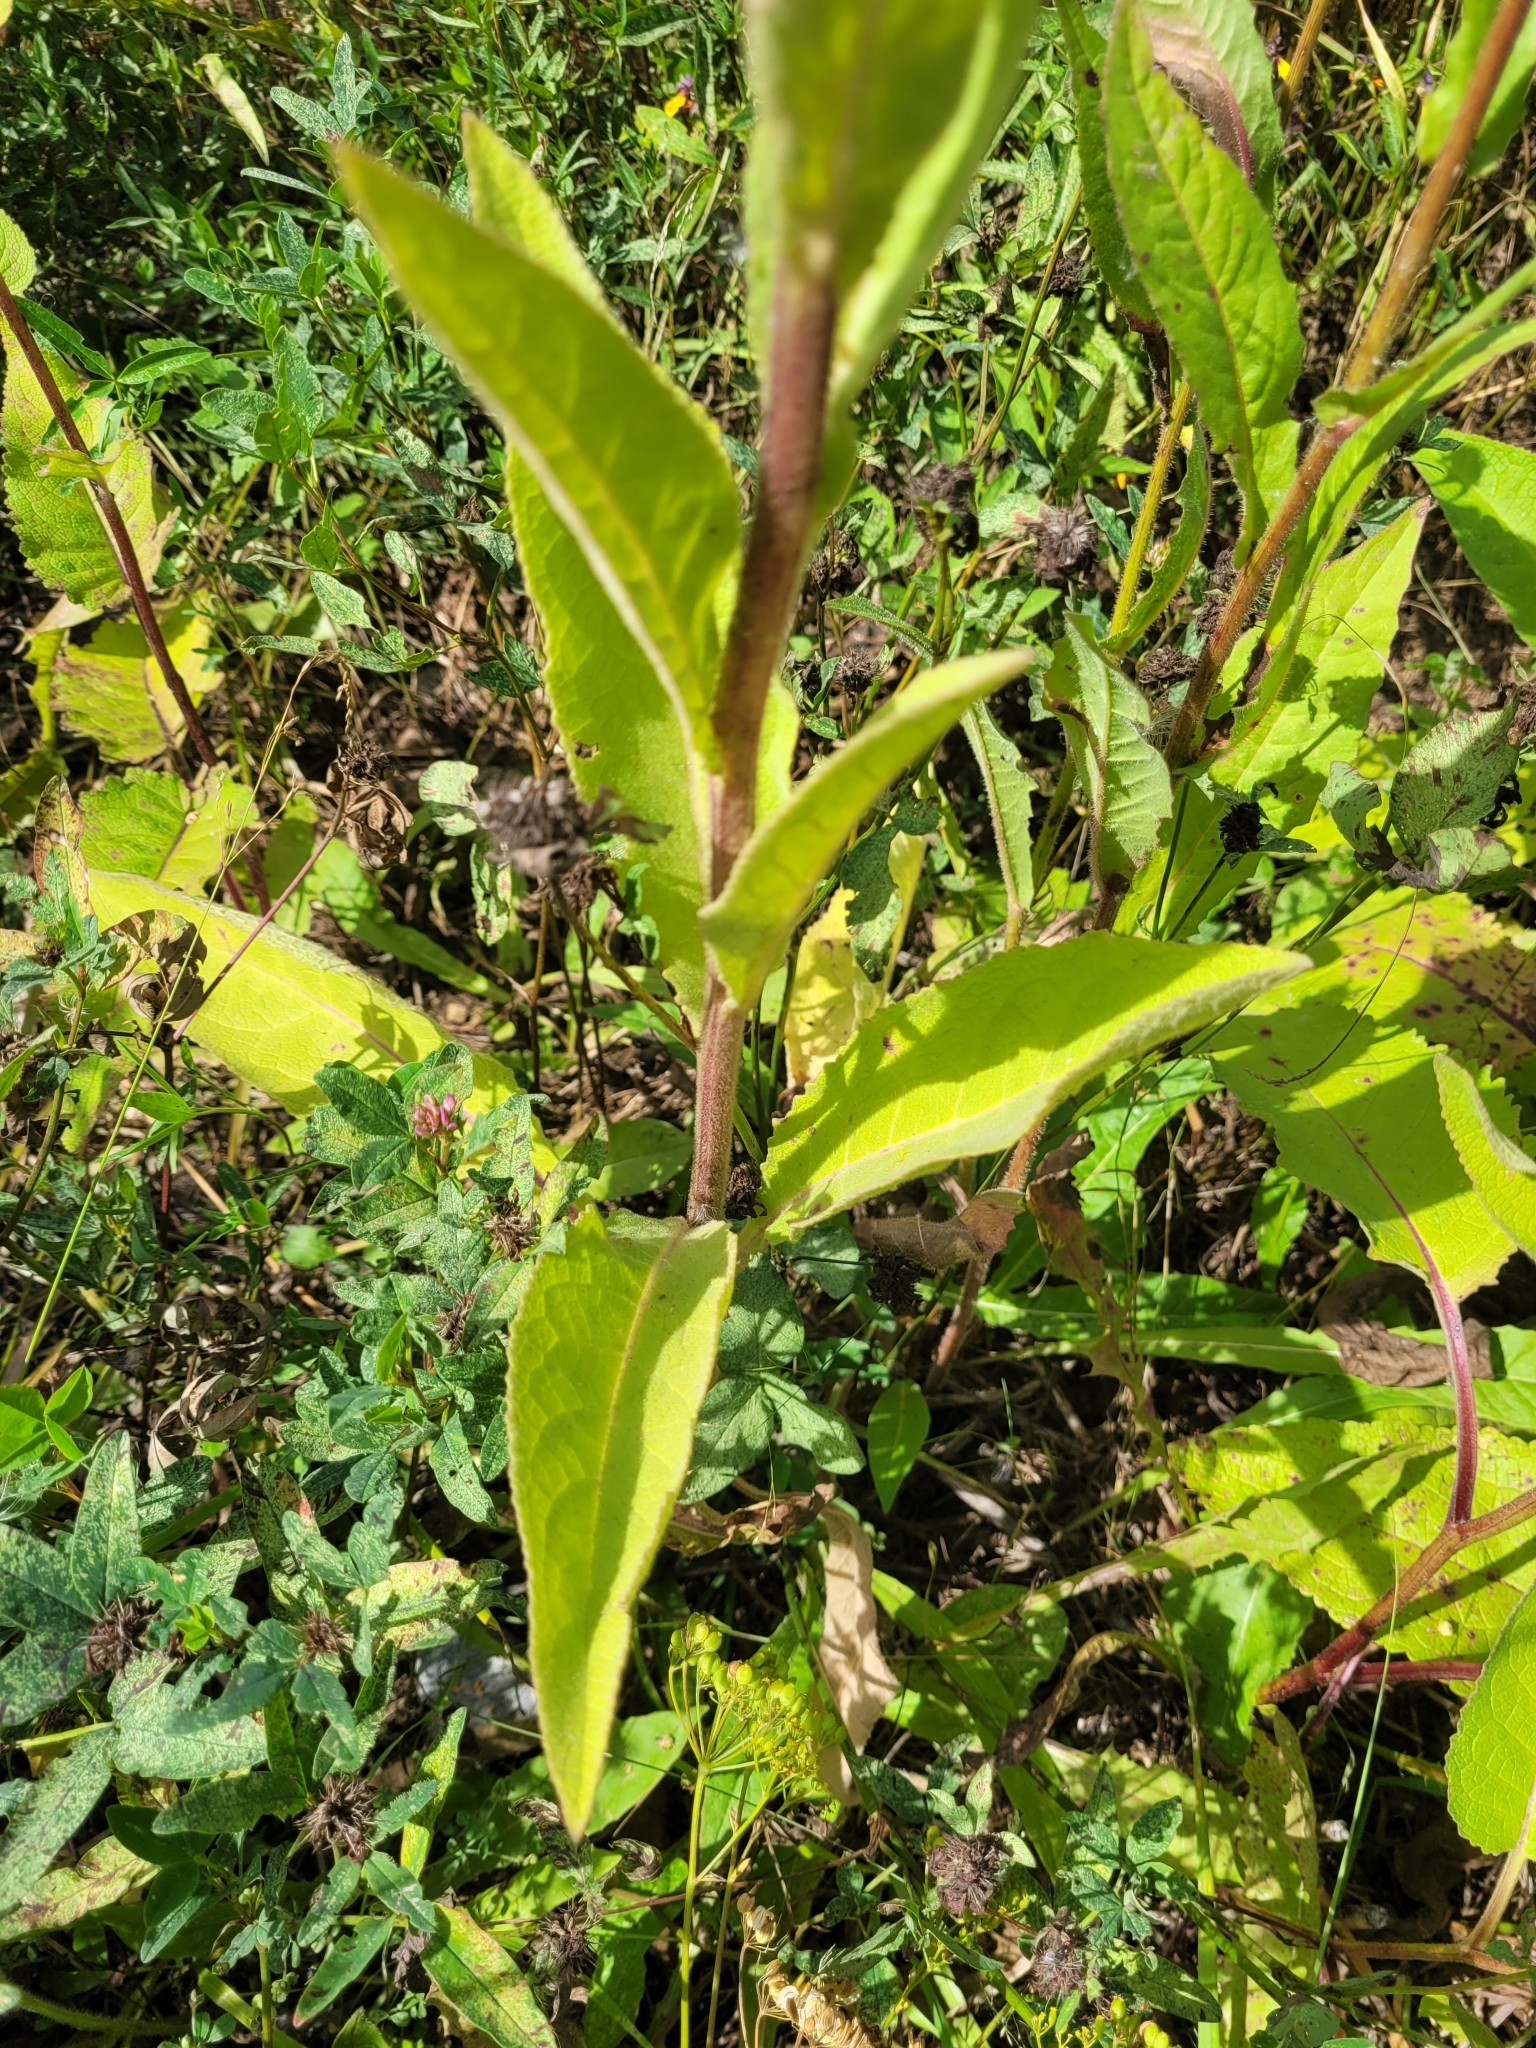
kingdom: Plantae
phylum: Tracheophyta
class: Magnoliopsida
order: Lamiales
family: Scrophulariaceae
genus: Verbascum
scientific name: Verbascum semialbum
